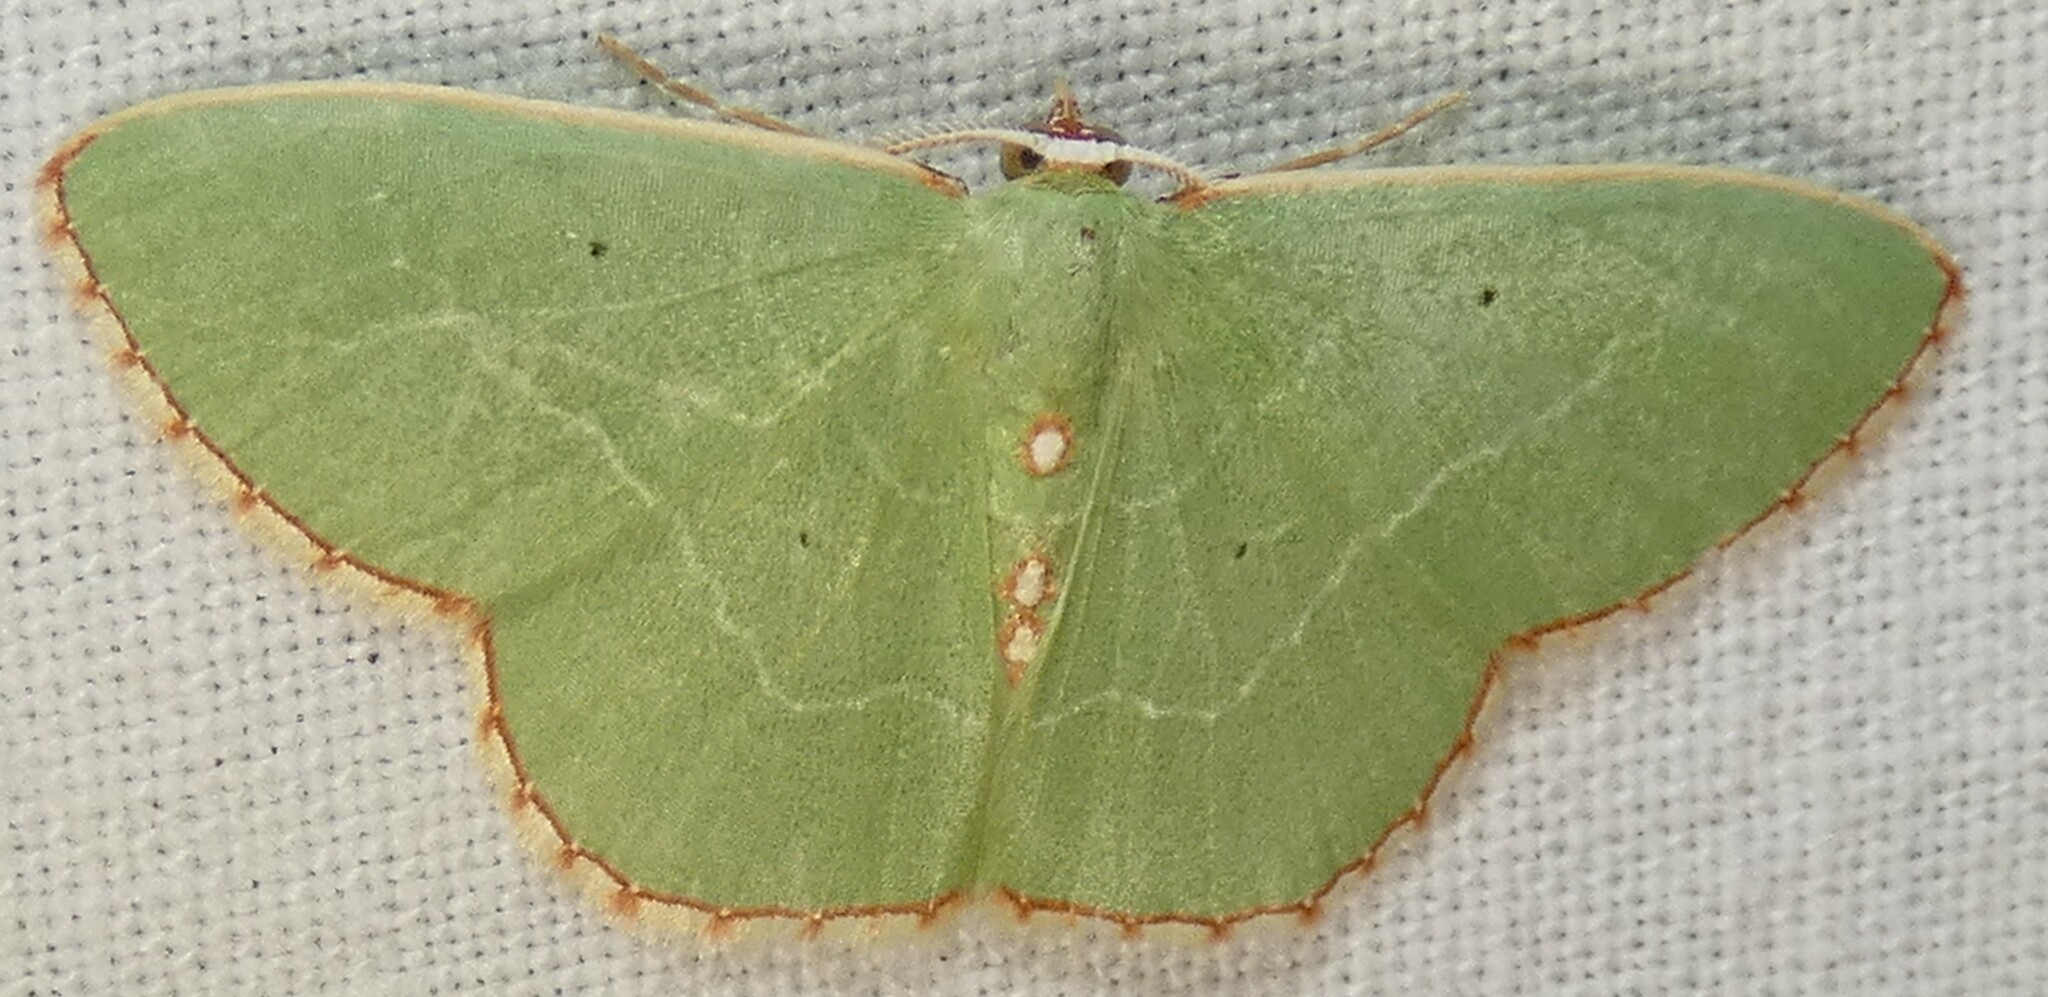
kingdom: Animalia
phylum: Arthropoda
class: Insecta
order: Lepidoptera
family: Geometridae
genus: Nemoria
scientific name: Nemoria lixaria
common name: Red-bordered emerald
